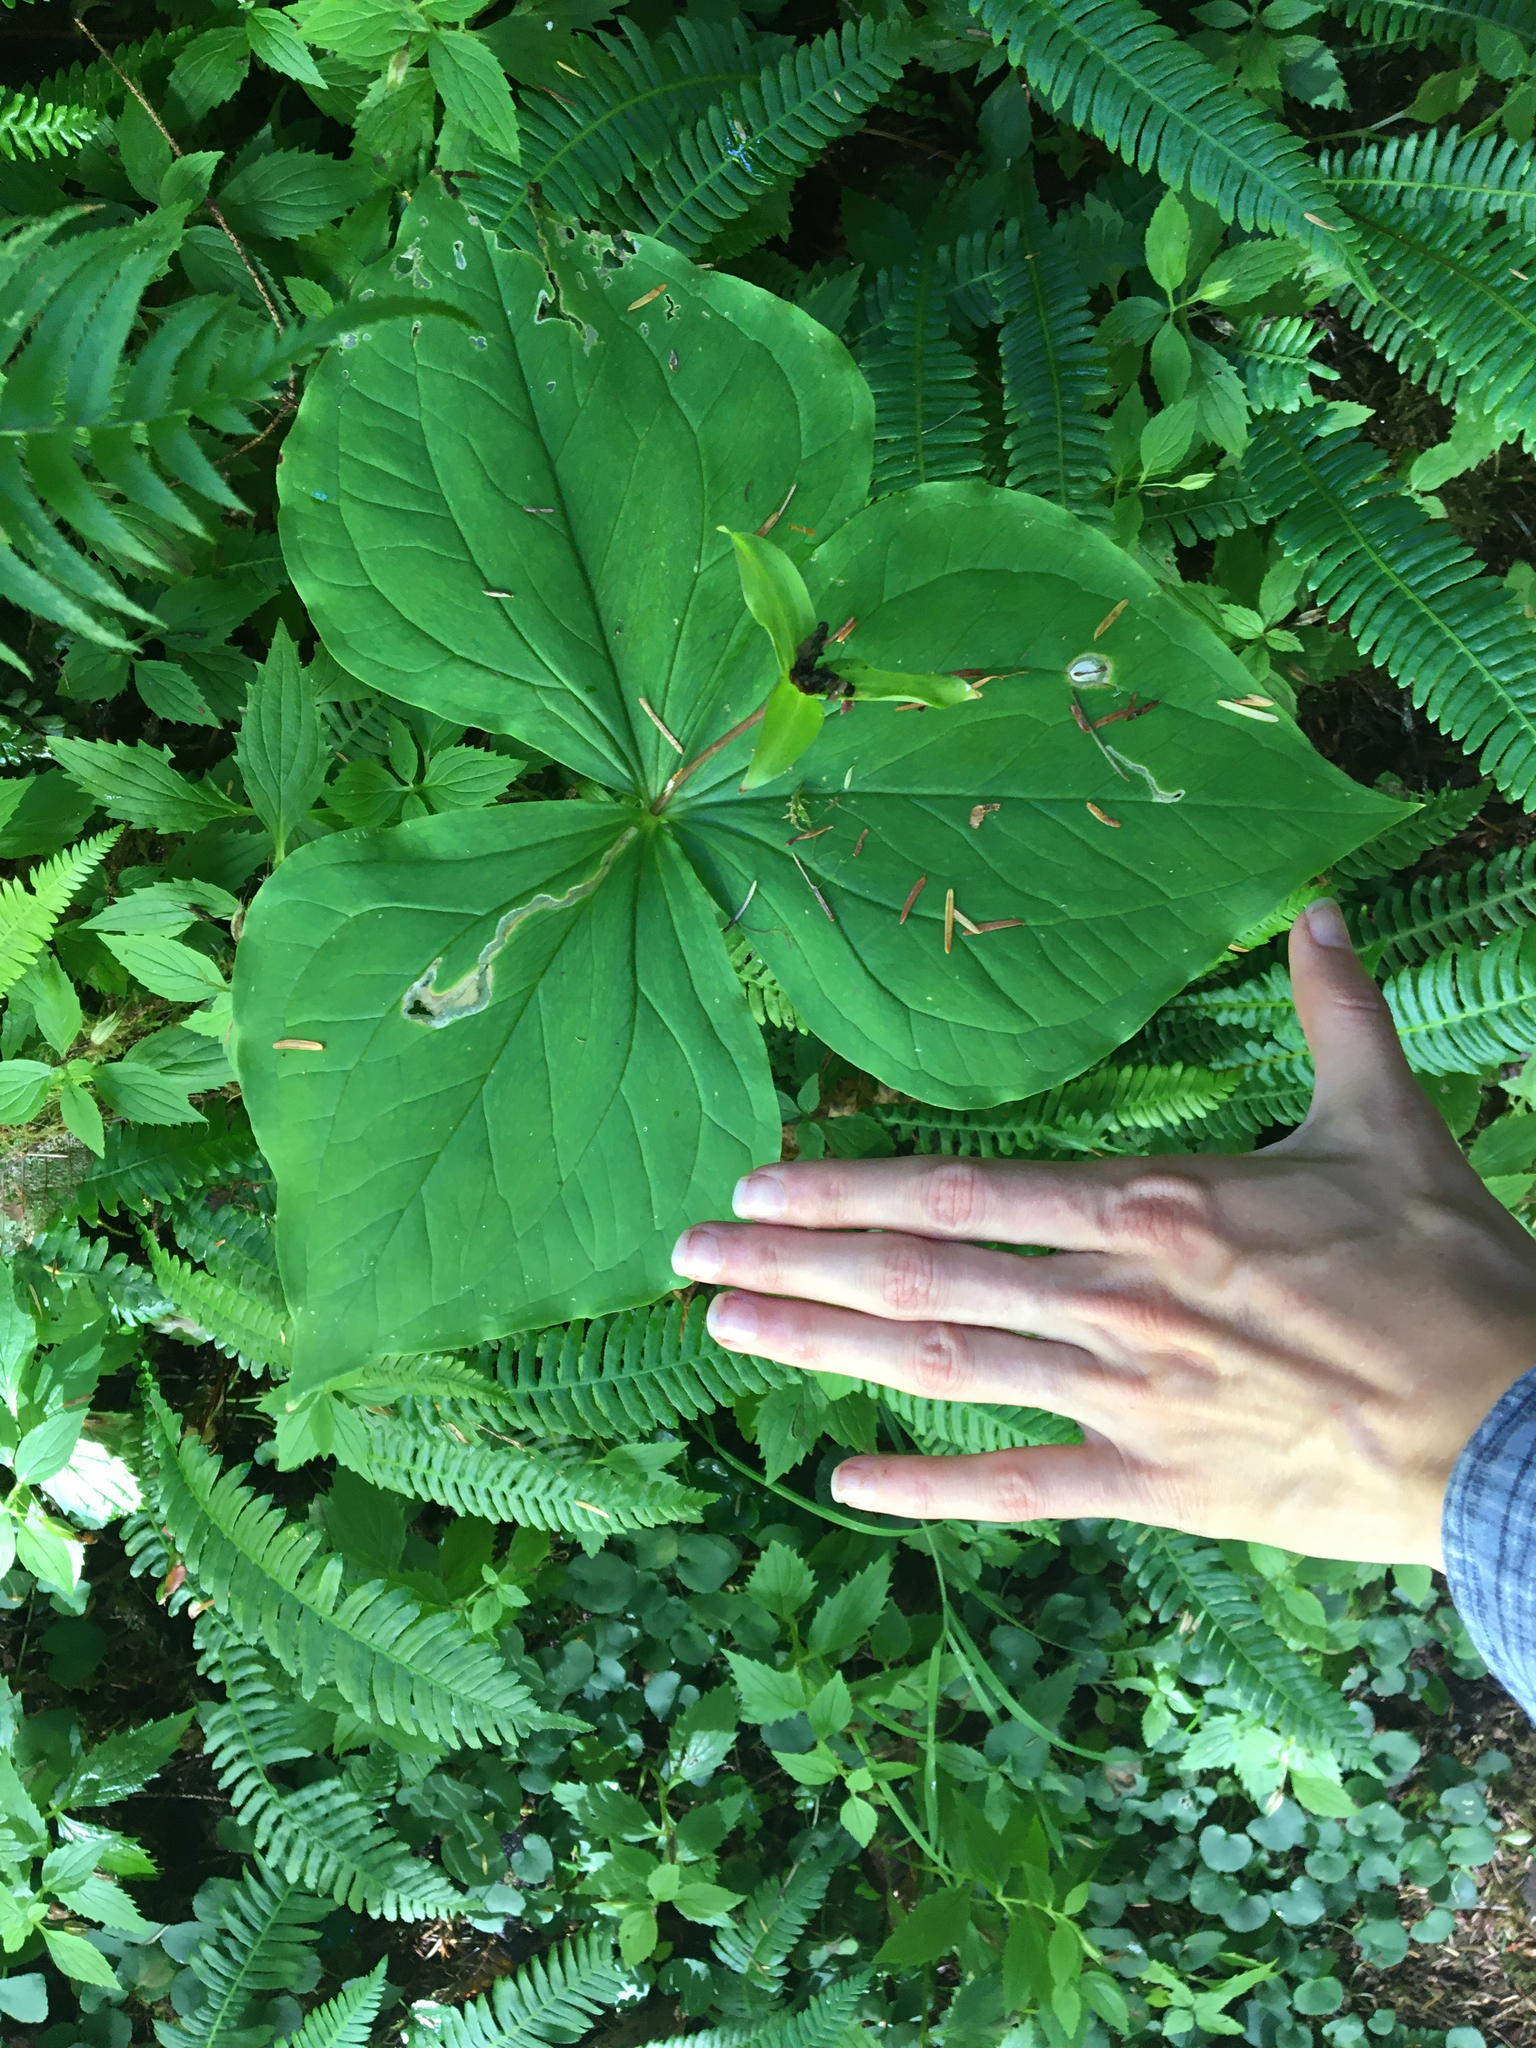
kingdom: Plantae
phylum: Tracheophyta
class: Liliopsida
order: Liliales
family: Melanthiaceae
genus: Trillium
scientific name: Trillium ovatum
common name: Pacific trillium
